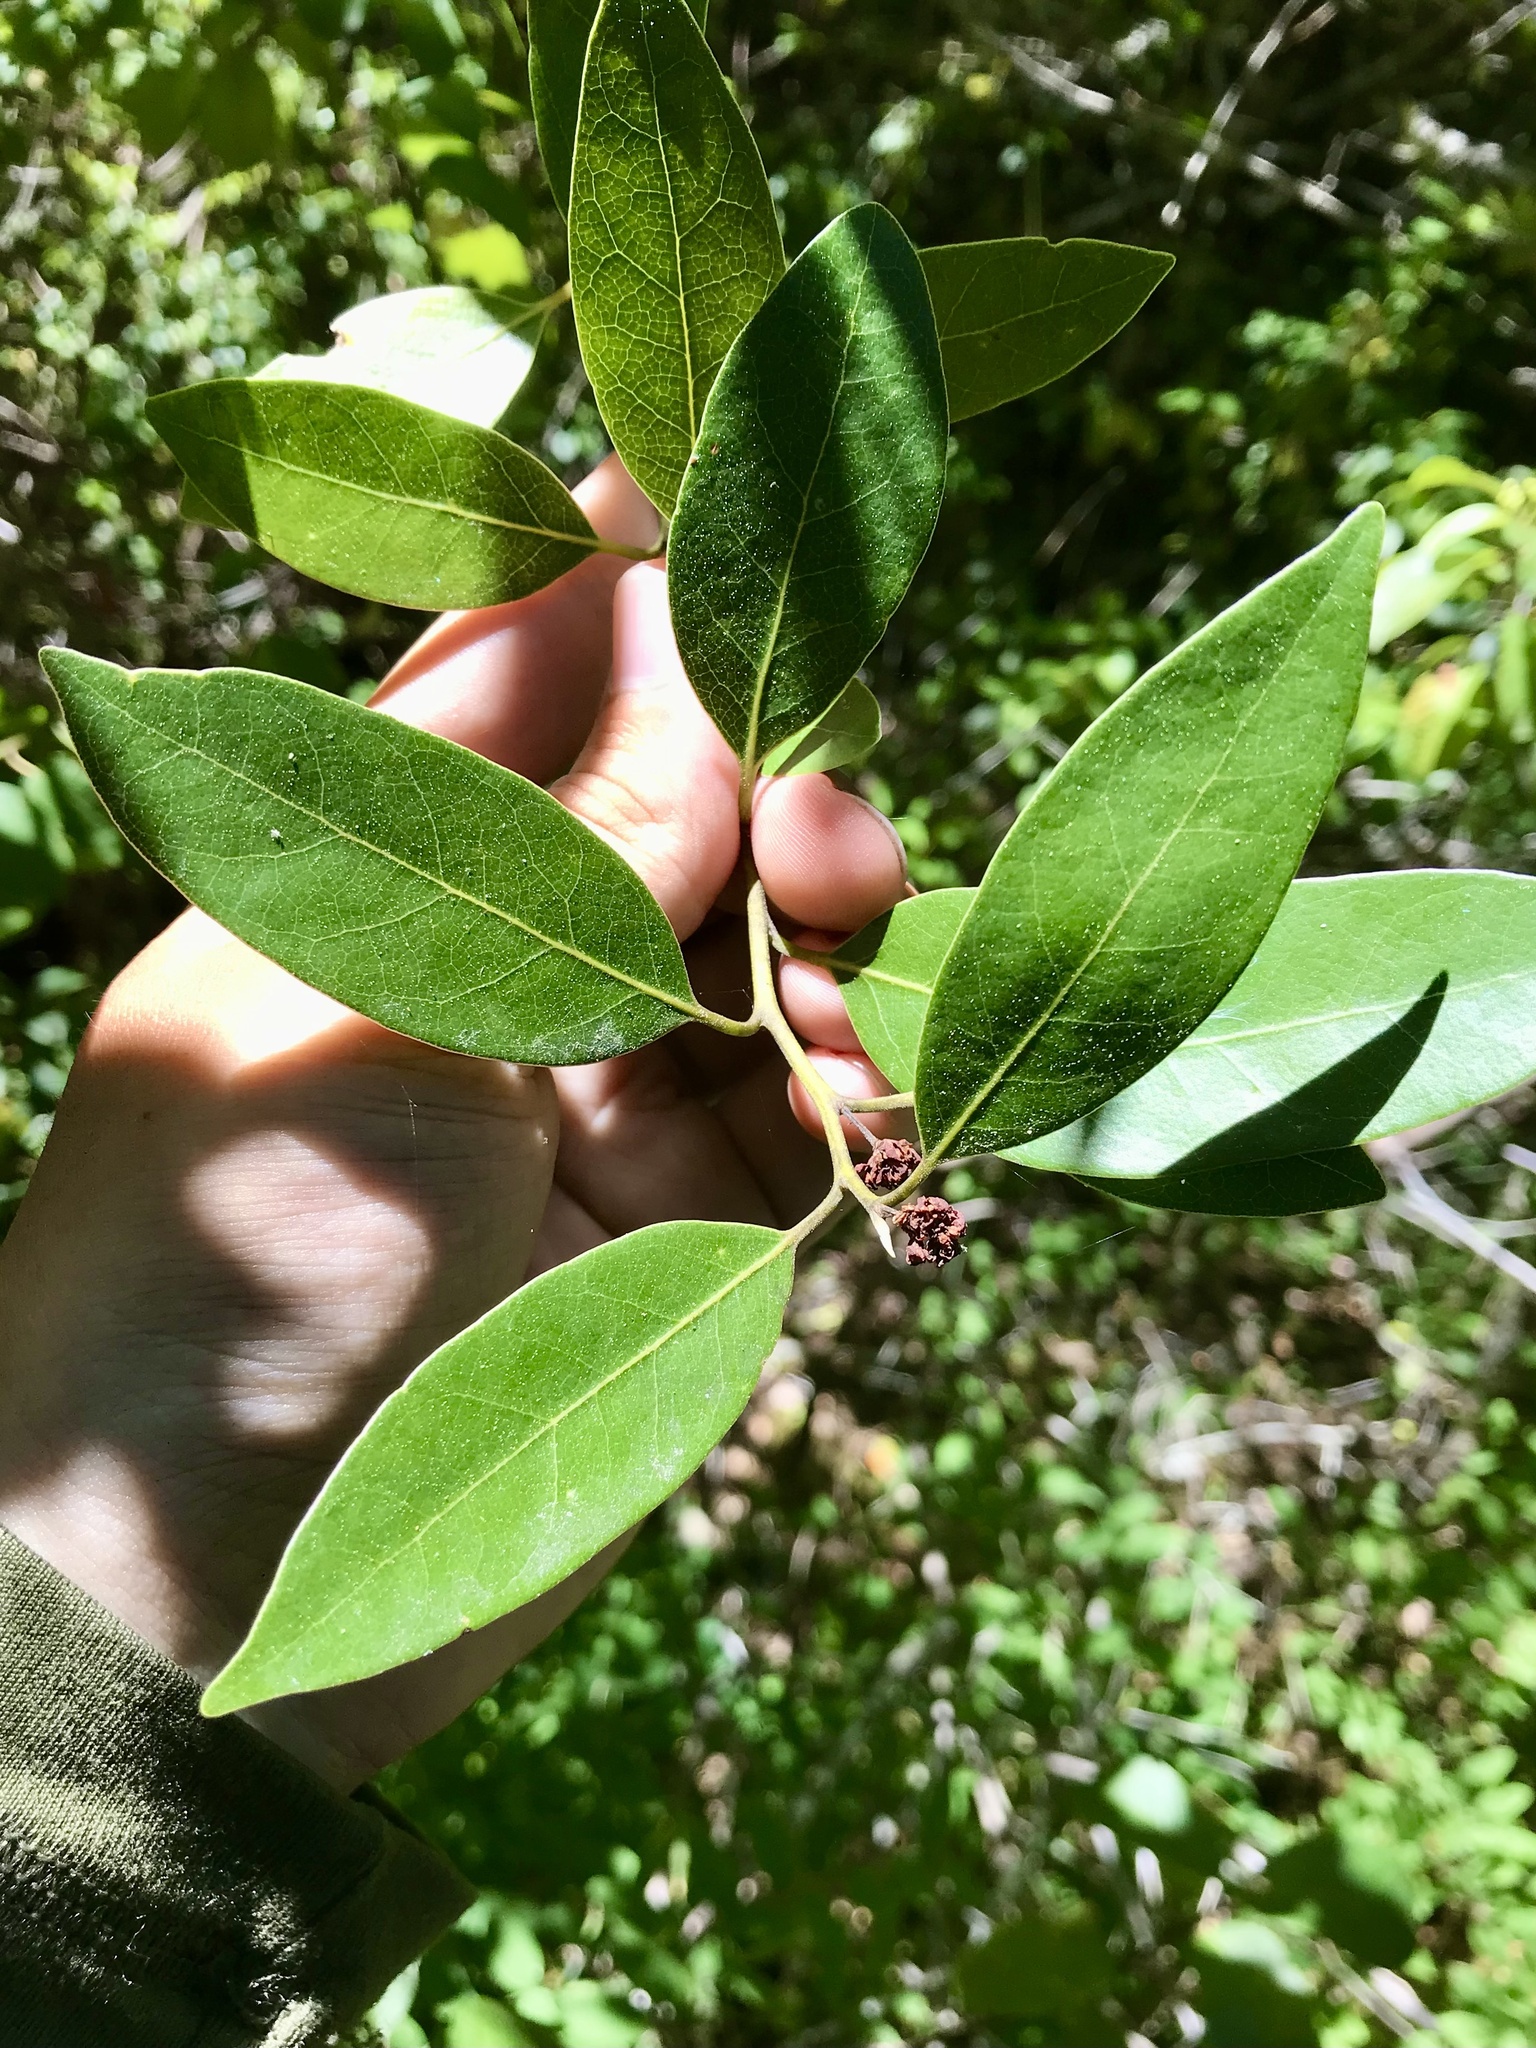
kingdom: Plantae
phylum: Tracheophyta
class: Magnoliopsida
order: Fagales
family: Fagaceae
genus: Quercus
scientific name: Quercus chrysolepis
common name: Canyon live oak
